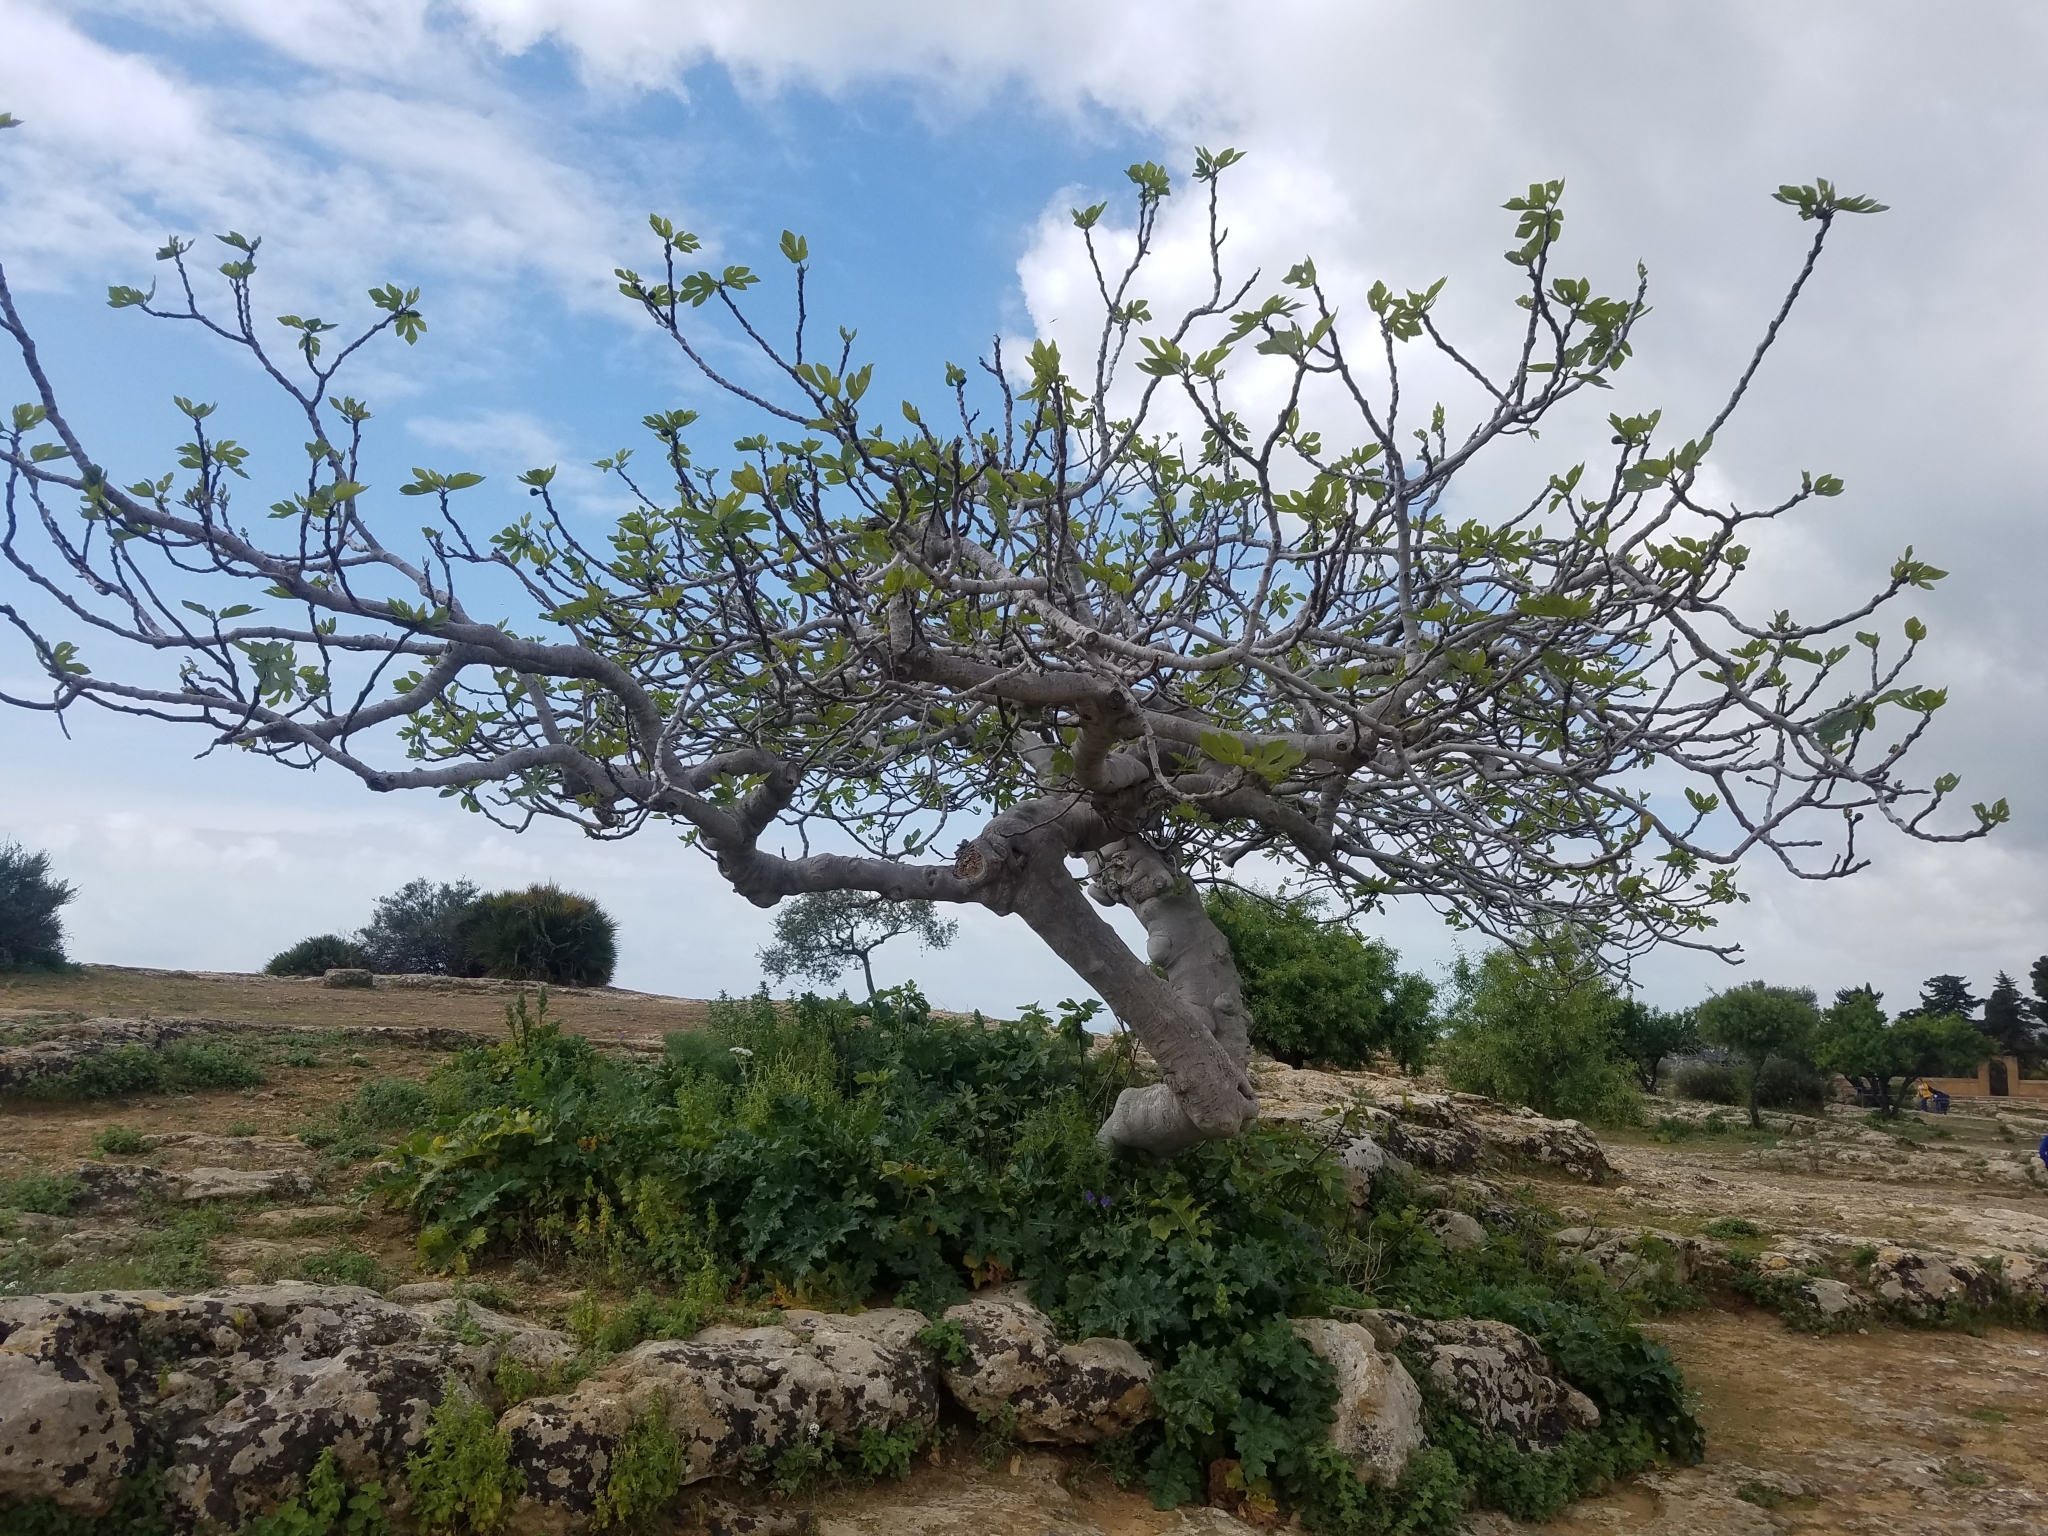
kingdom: Plantae
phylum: Tracheophyta
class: Magnoliopsida
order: Rosales
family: Moraceae
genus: Ficus
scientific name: Ficus carica
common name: Fig
